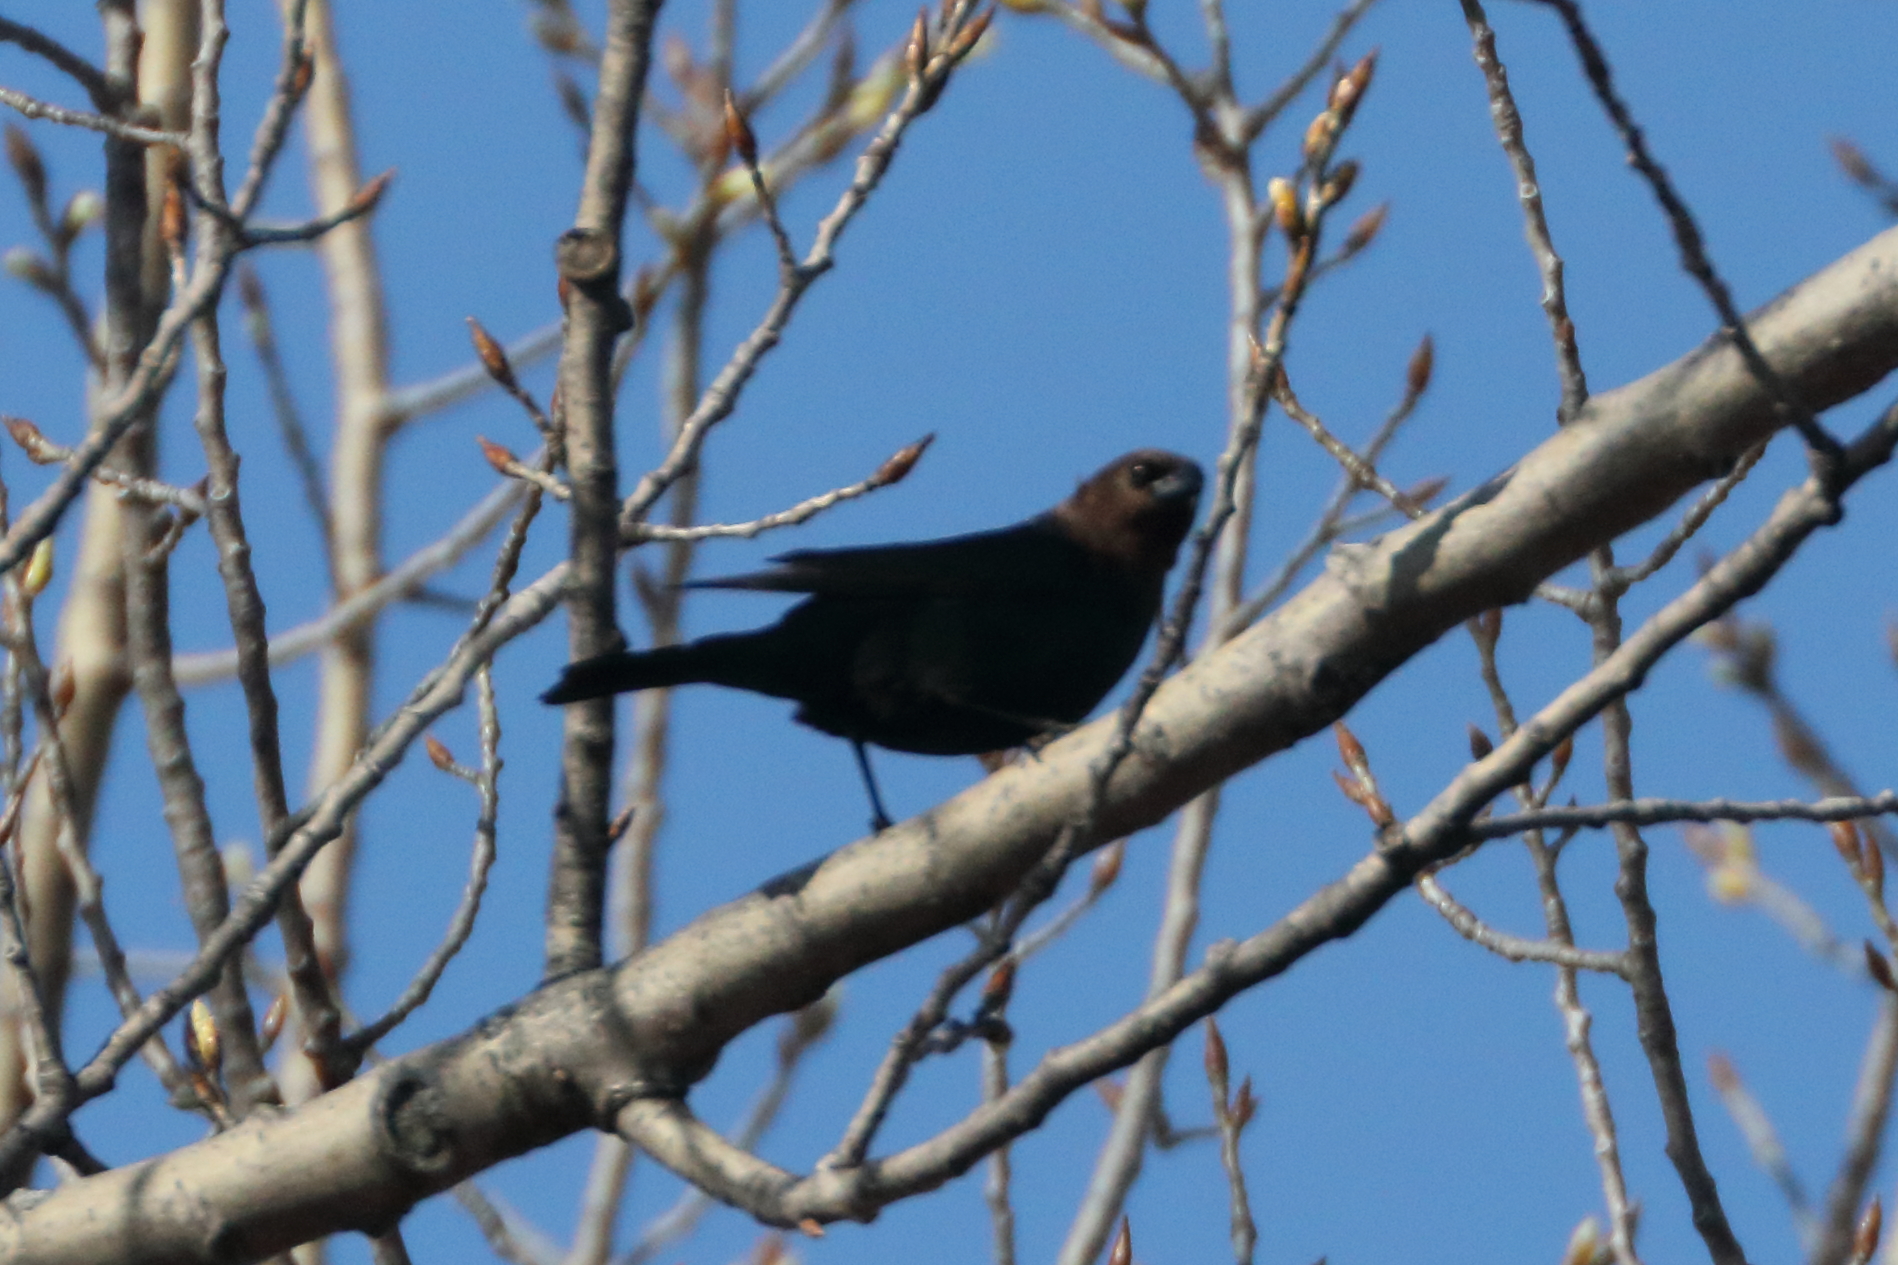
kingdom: Animalia
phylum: Chordata
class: Aves
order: Passeriformes
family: Icteridae
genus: Molothrus
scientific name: Molothrus ater
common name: Brown-headed cowbird
